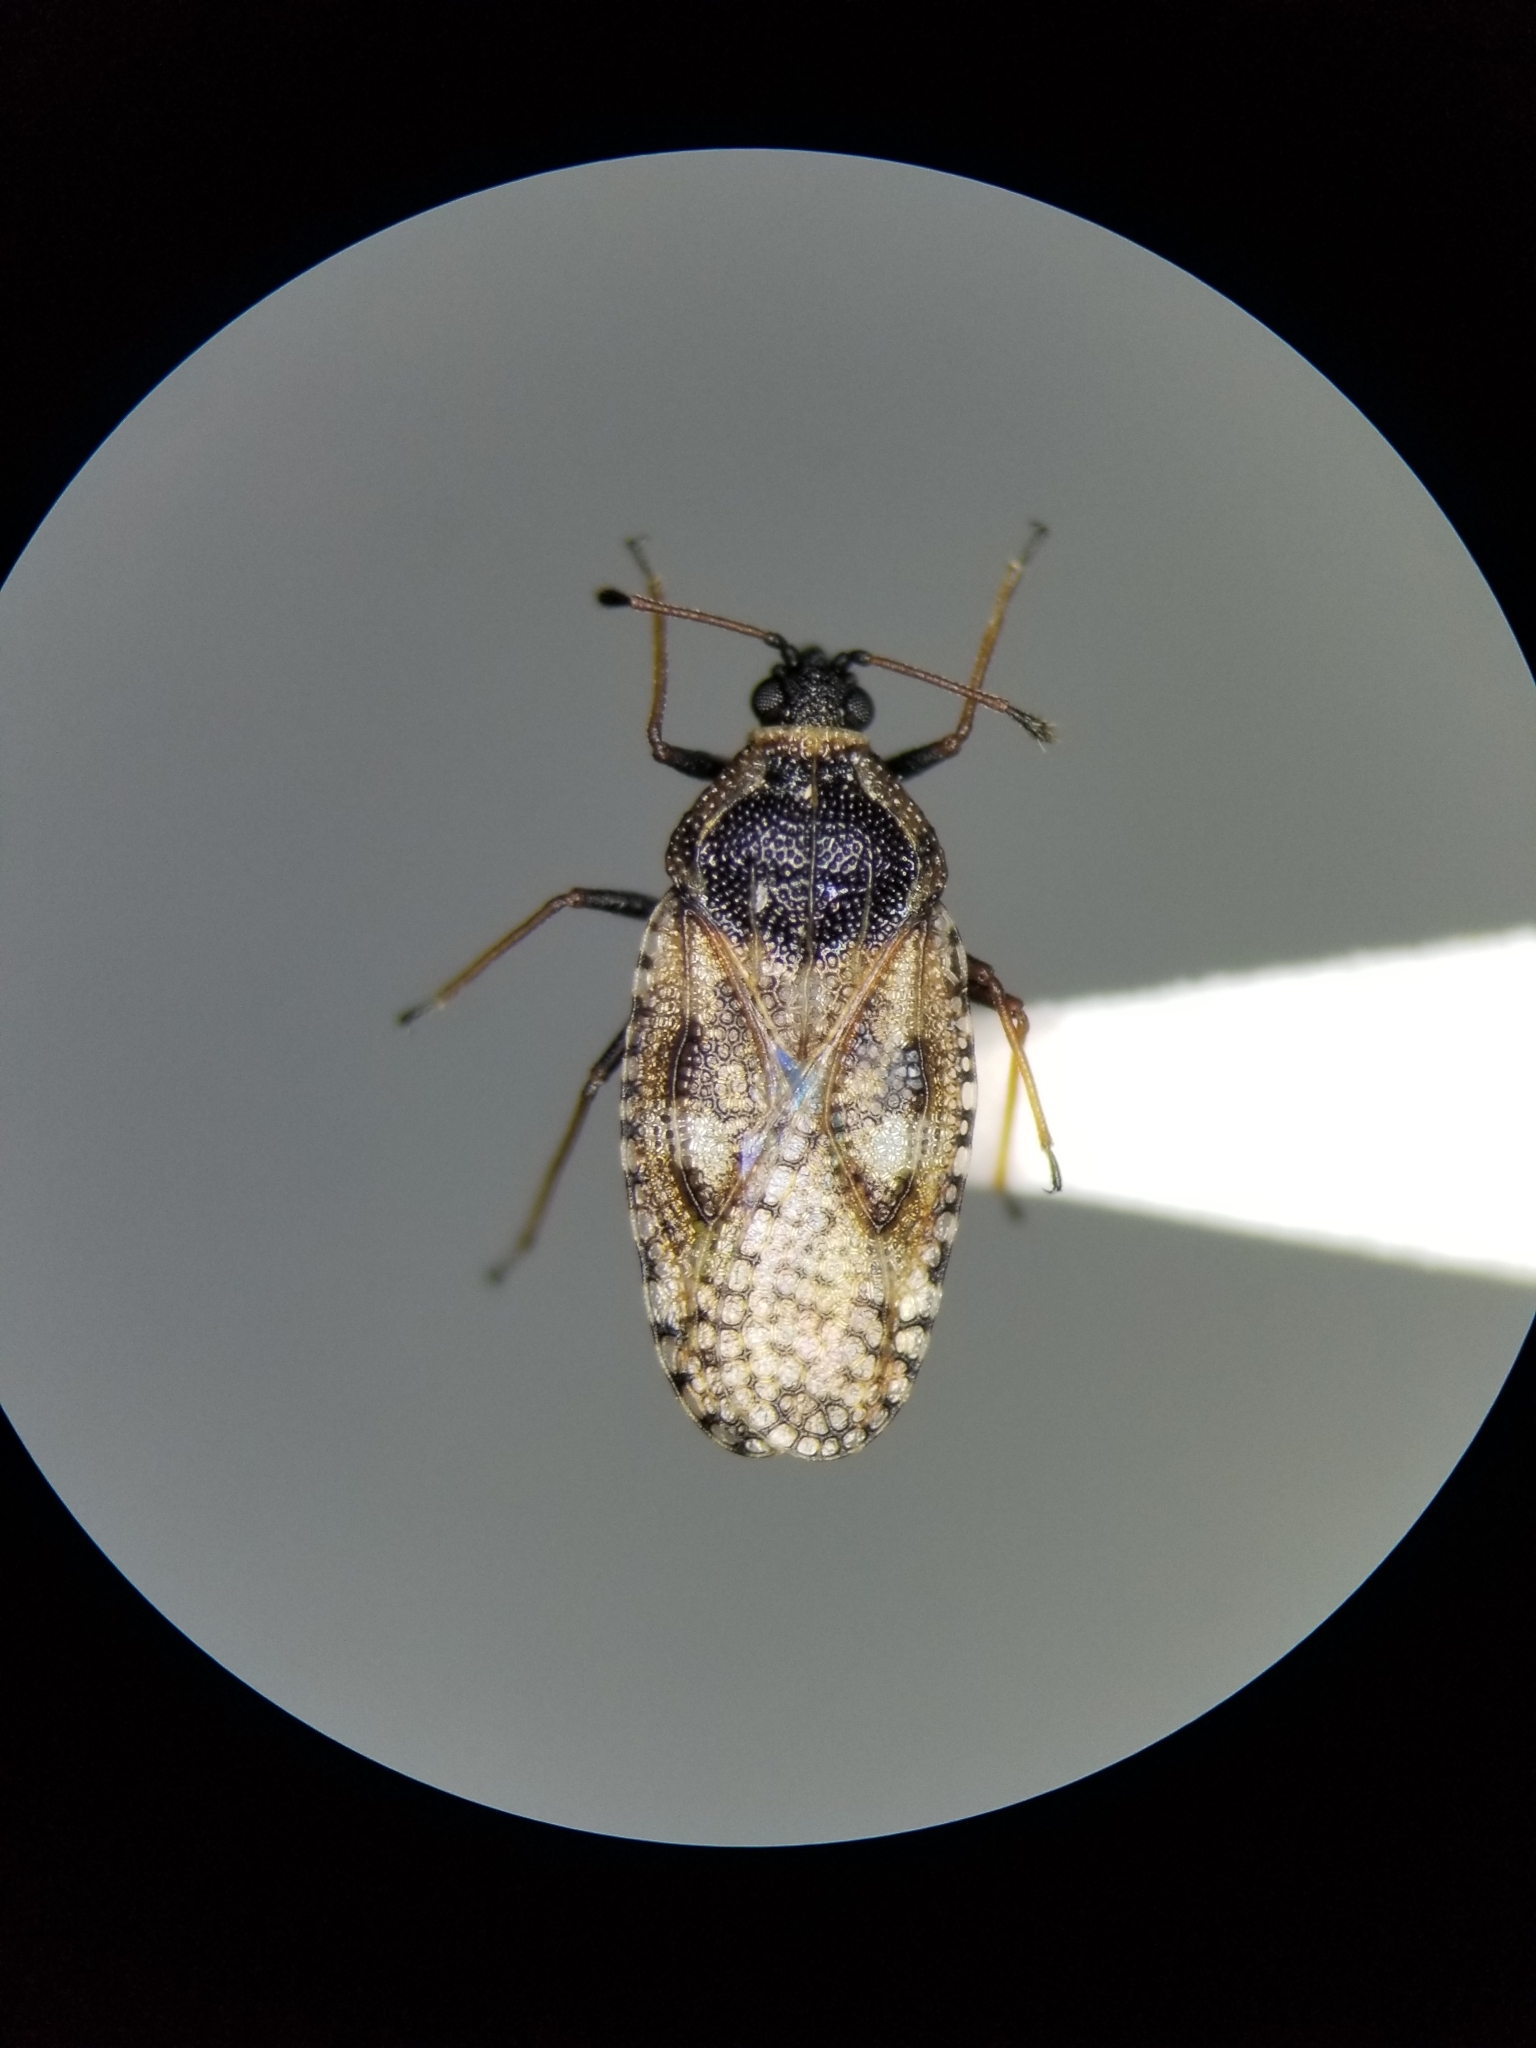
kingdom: Animalia
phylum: Arthropoda
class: Insecta
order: Hemiptera
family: Tingidae
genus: Dictyla
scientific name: Dictyla echii
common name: Lace bug
